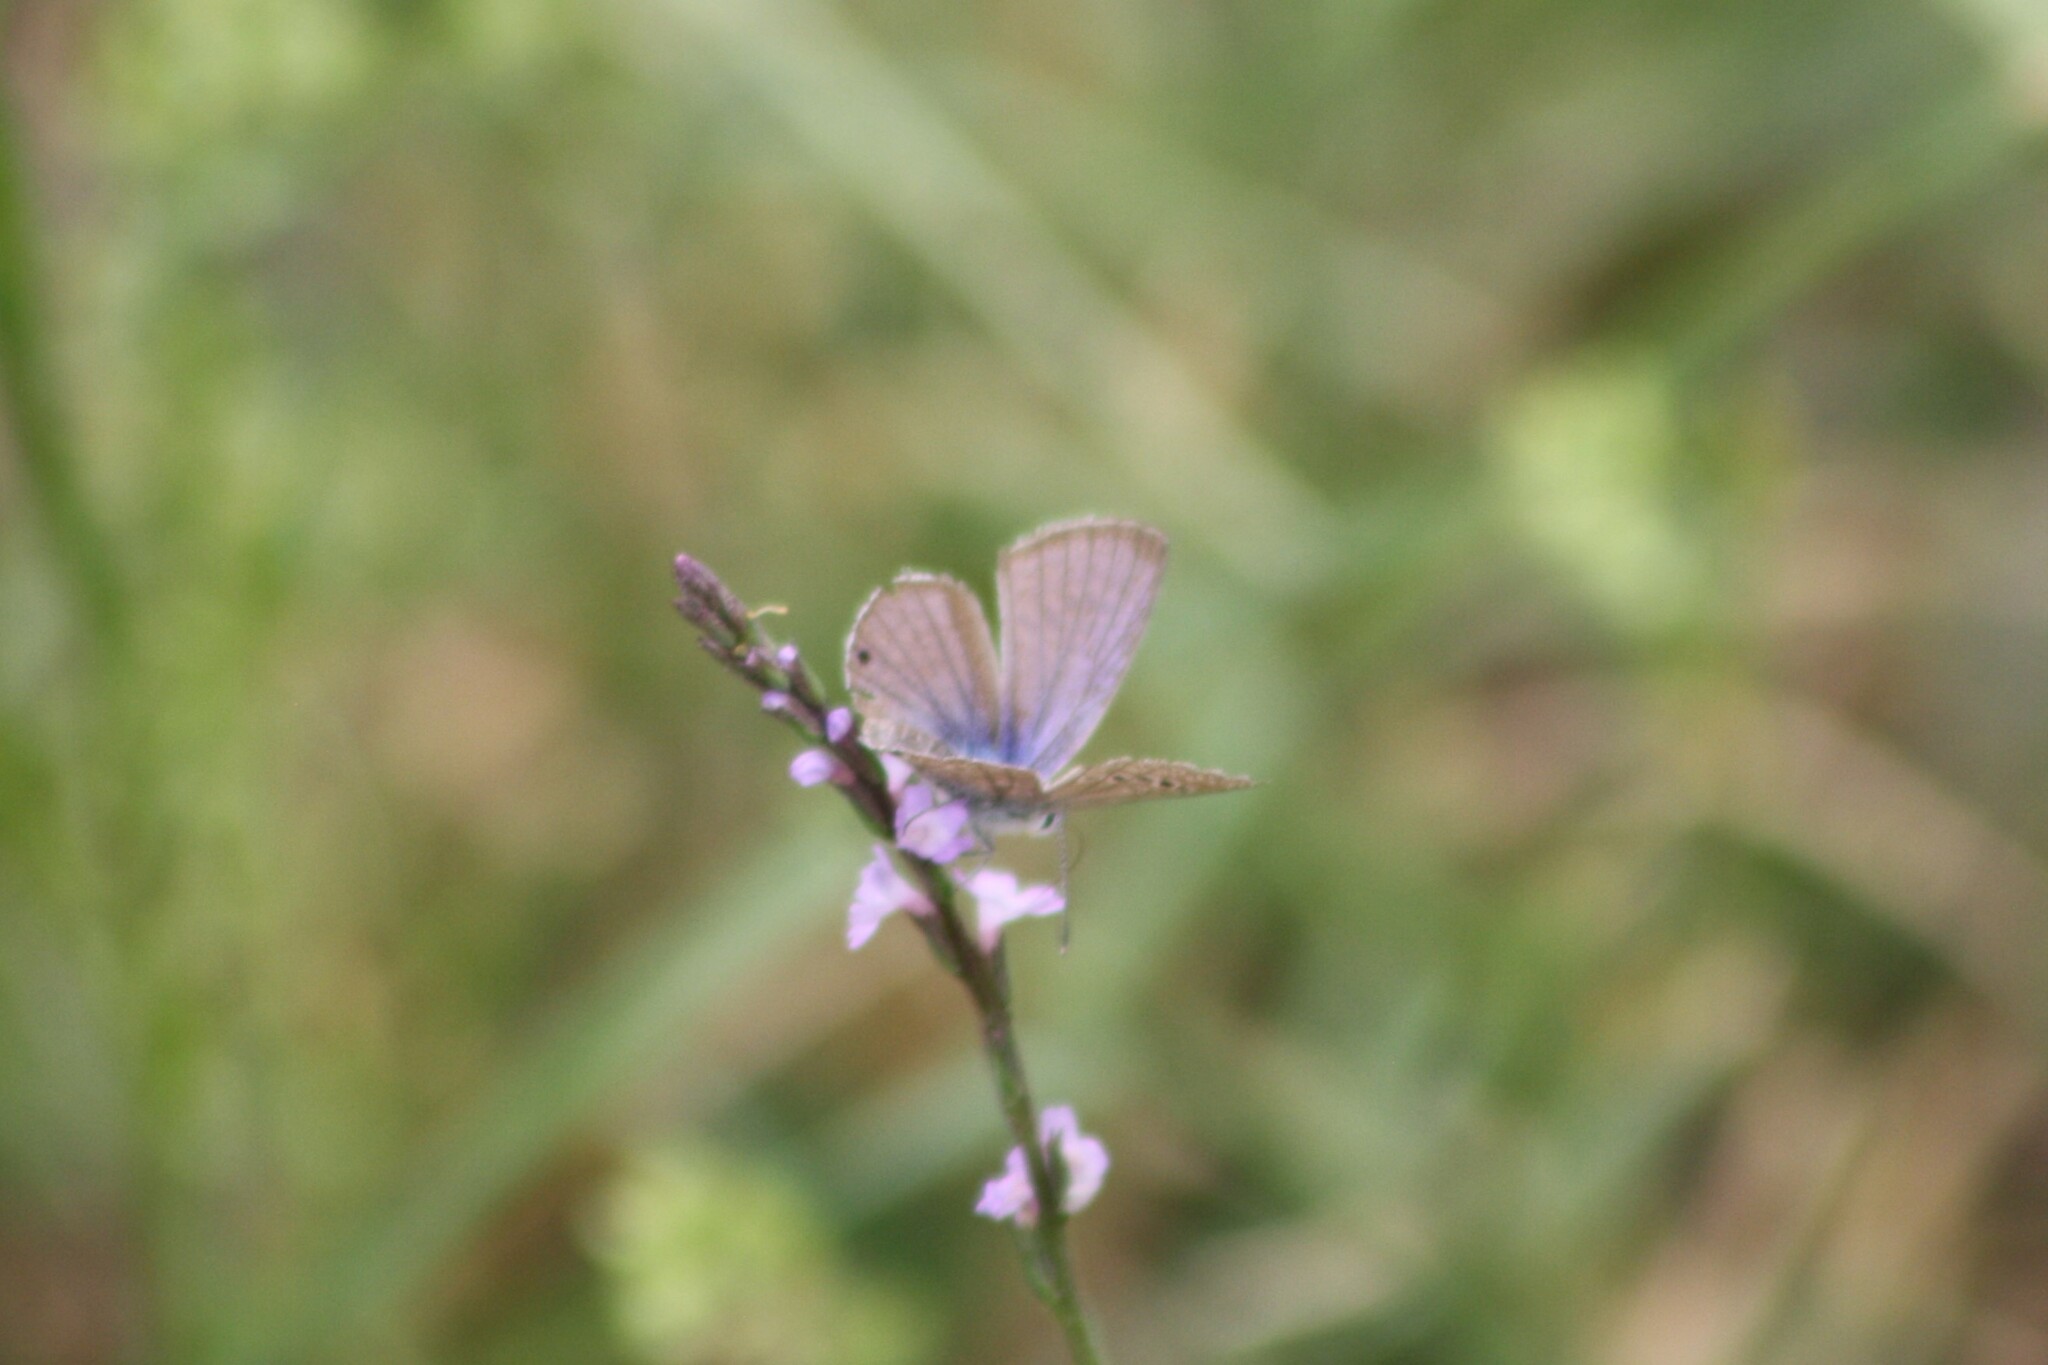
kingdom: Animalia
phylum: Arthropoda
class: Insecta
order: Lepidoptera
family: Lycaenidae
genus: Echinargus
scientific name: Echinargus isola
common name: Reakirt's blue
